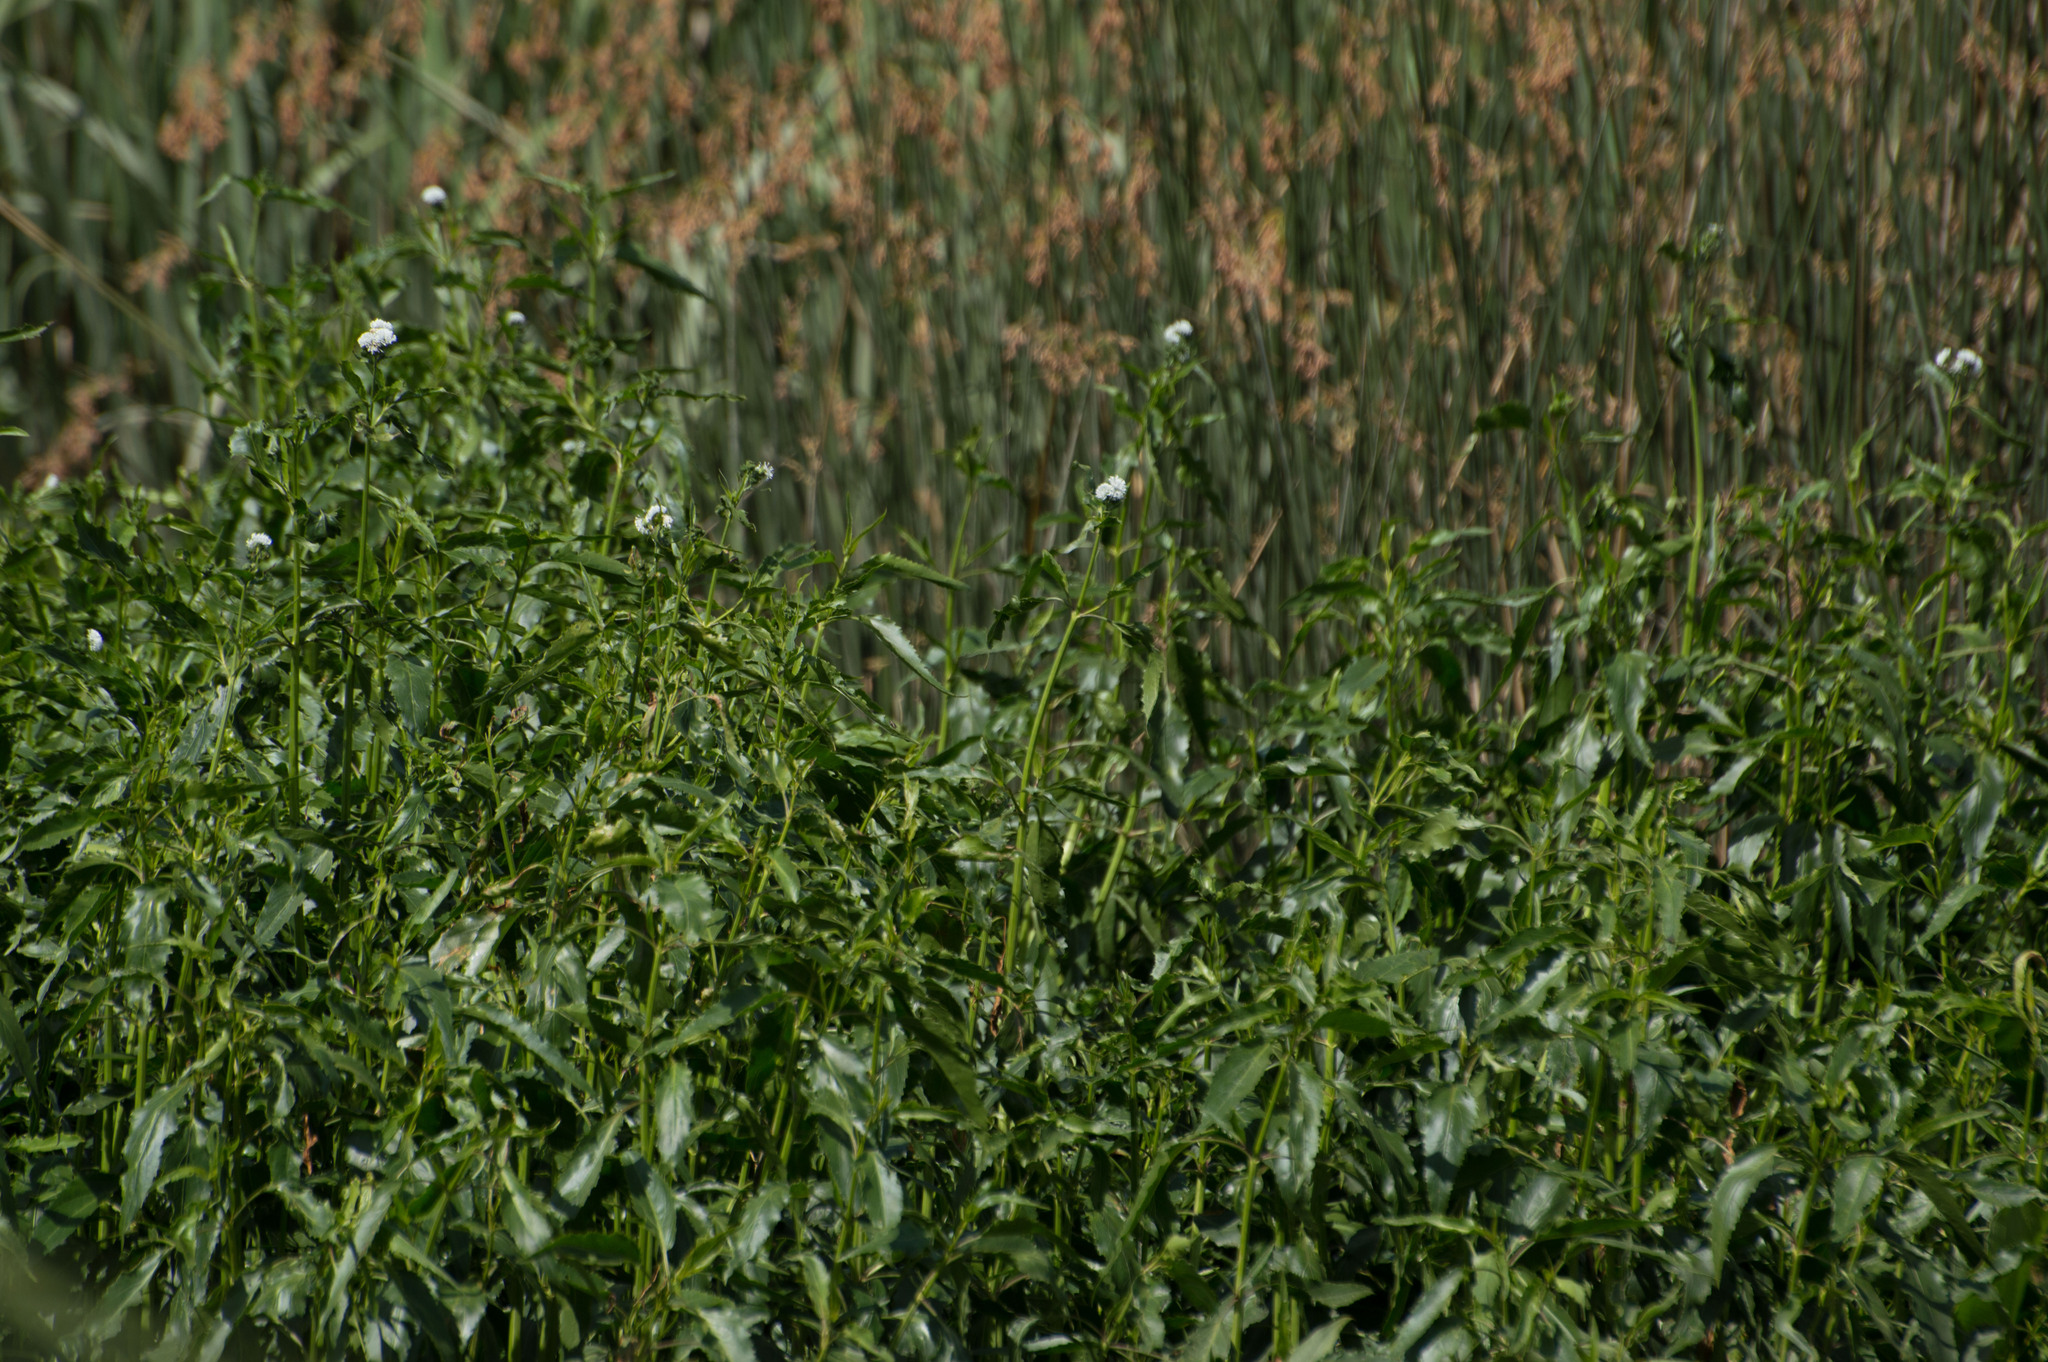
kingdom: Plantae
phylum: Tracheophyta
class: Magnoliopsida
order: Asterales
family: Asteraceae
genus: Gymnocoronis
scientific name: Gymnocoronis spilanthoides
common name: Senegal teaplant
